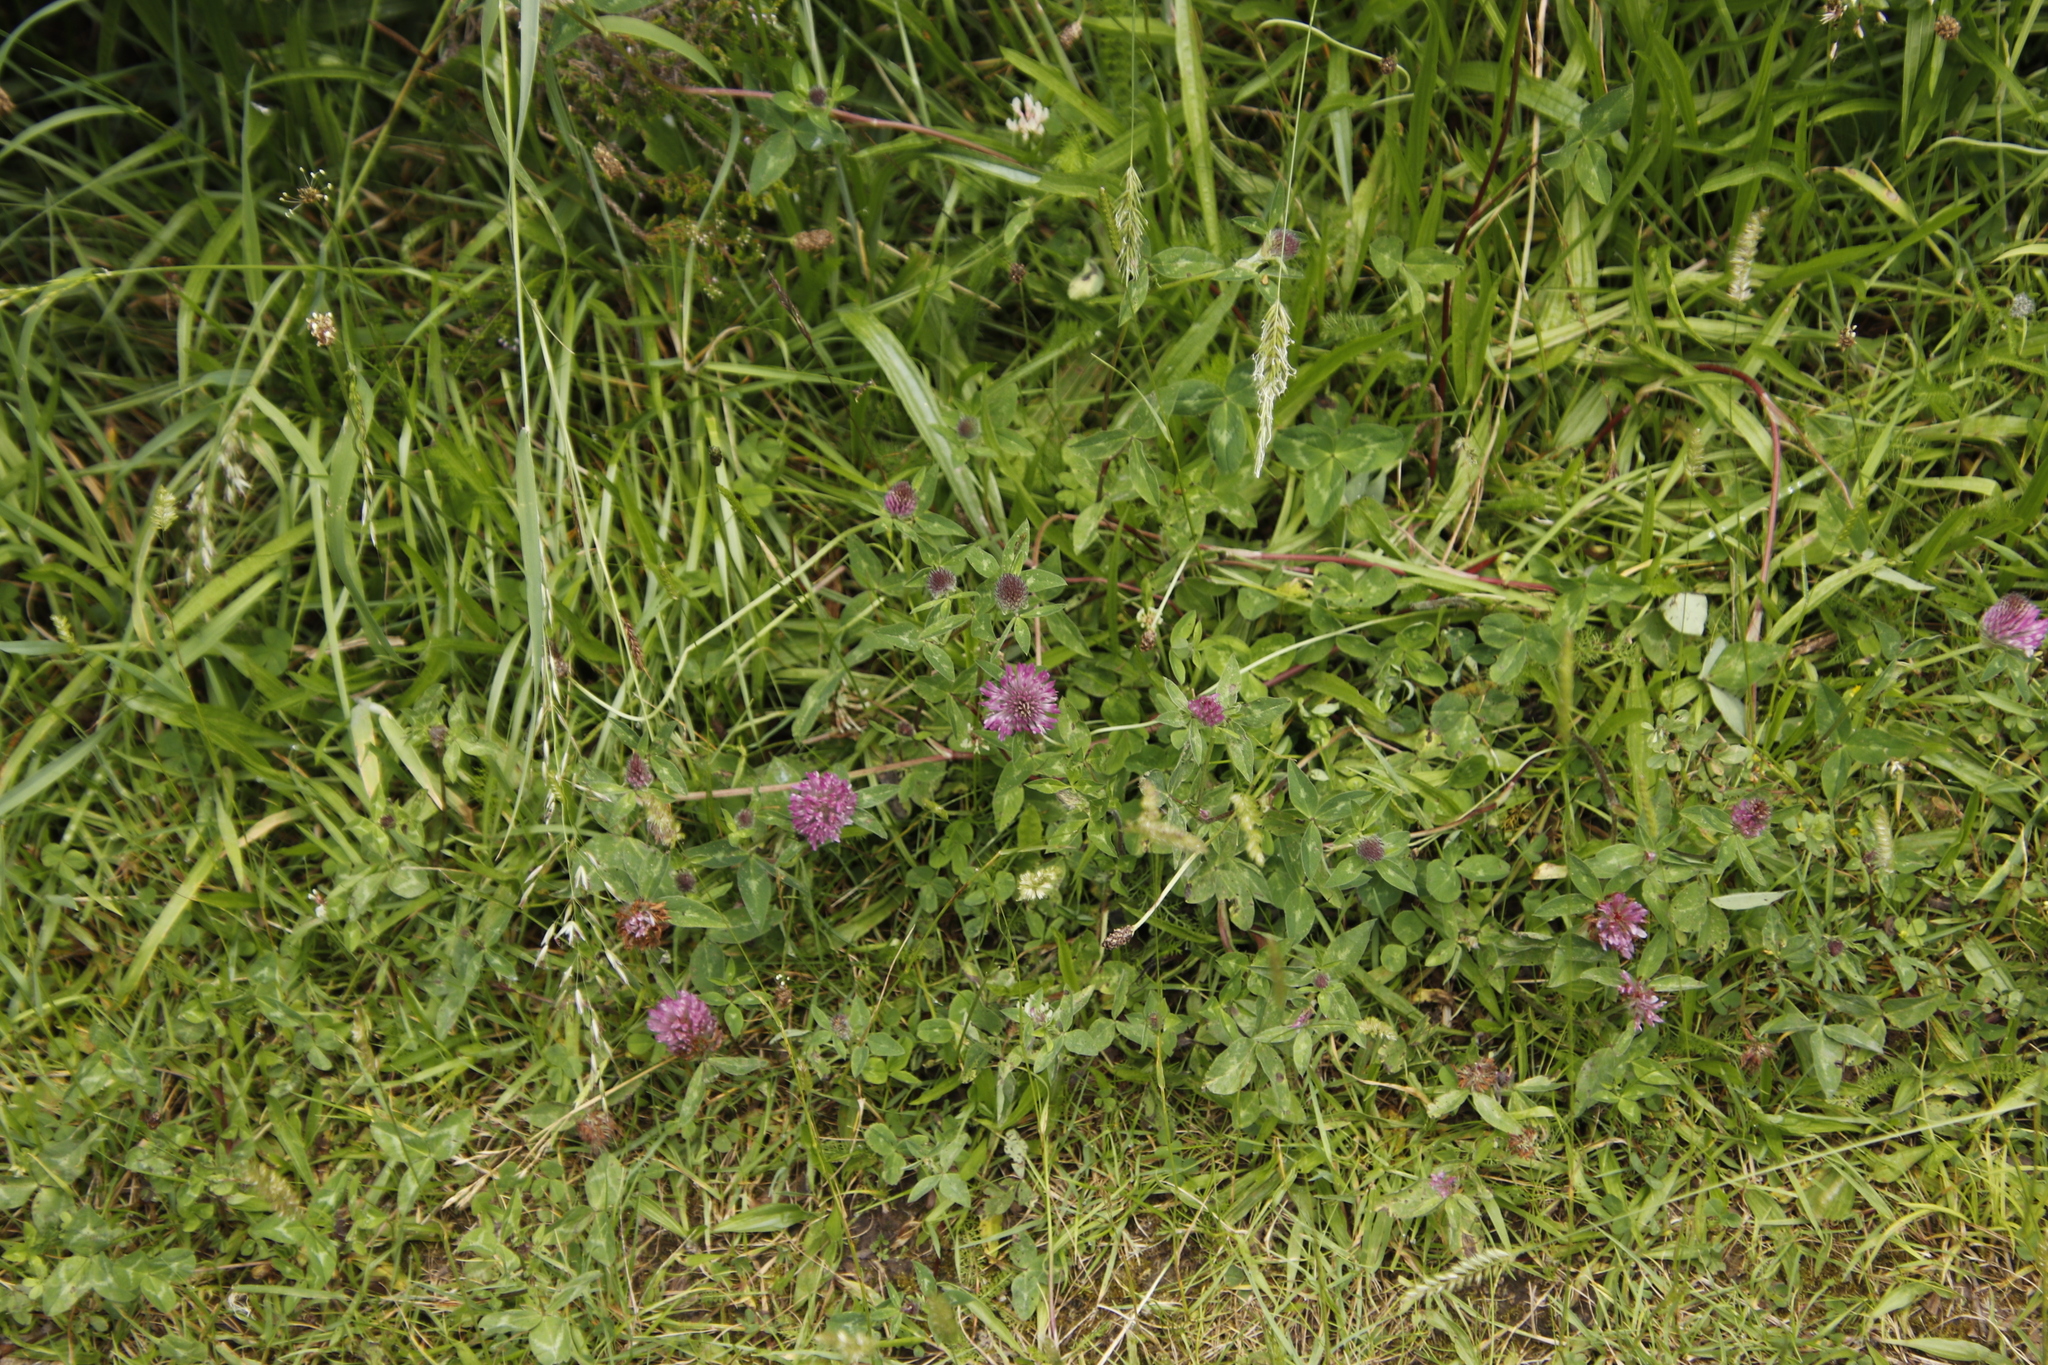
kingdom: Plantae
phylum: Tracheophyta
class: Magnoliopsida
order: Fabales
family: Fabaceae
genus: Trifolium
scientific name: Trifolium pratense
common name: Red clover
